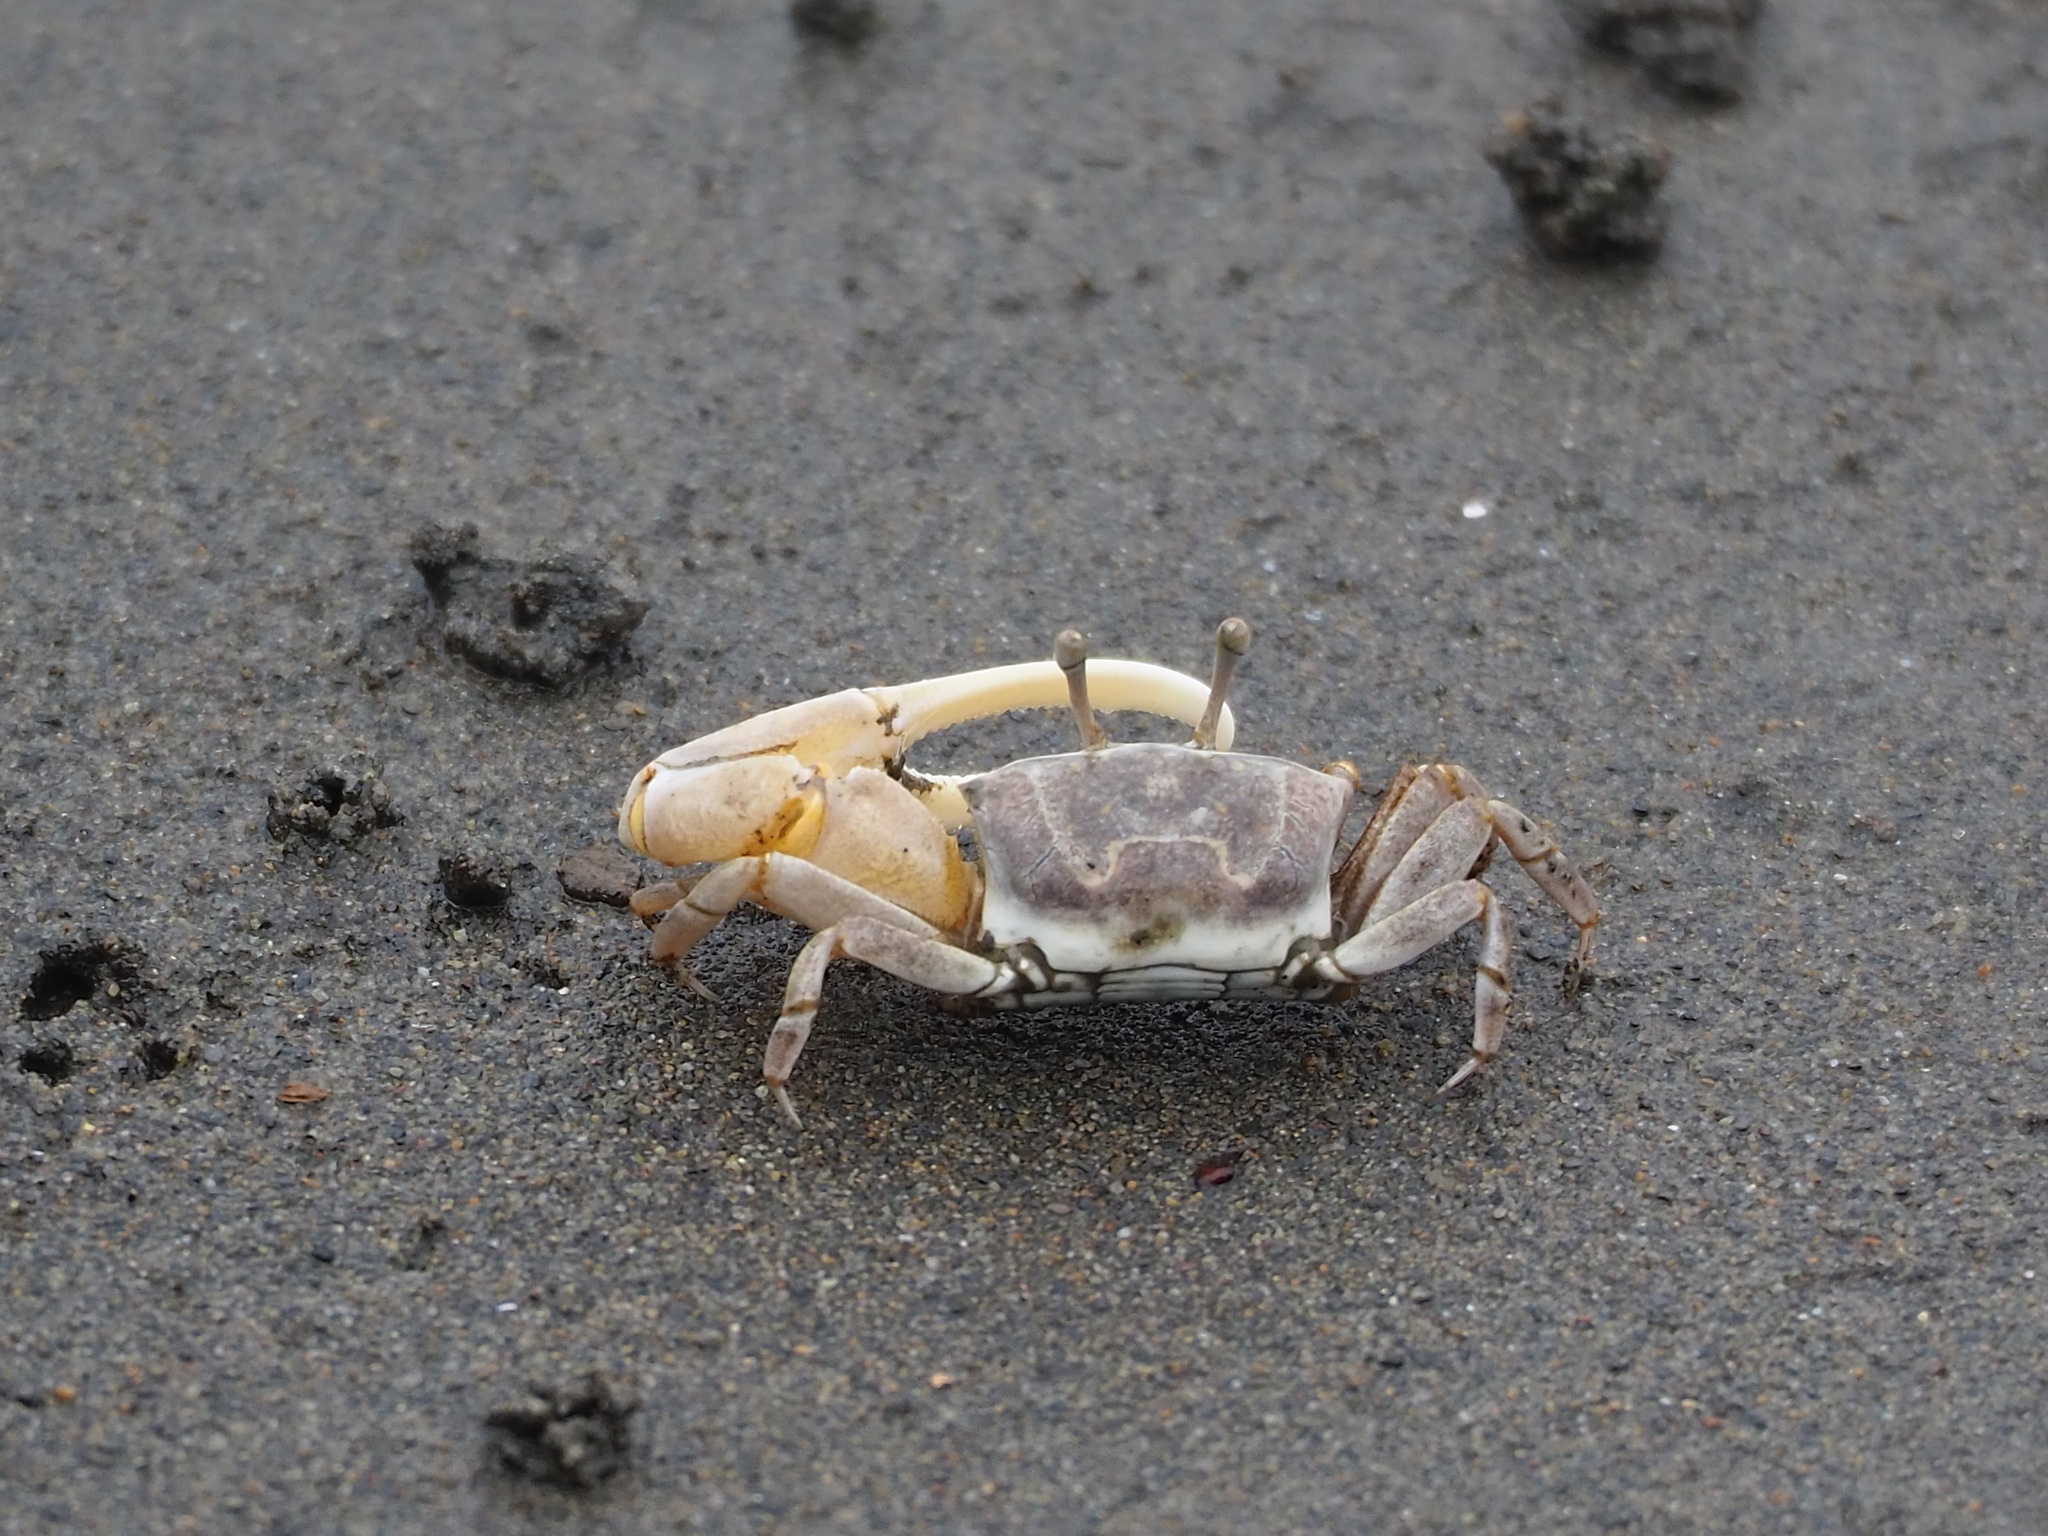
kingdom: Animalia
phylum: Arthropoda
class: Malacostraca
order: Decapoda
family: Ocypodidae
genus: Austruca
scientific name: Austruca lactea
